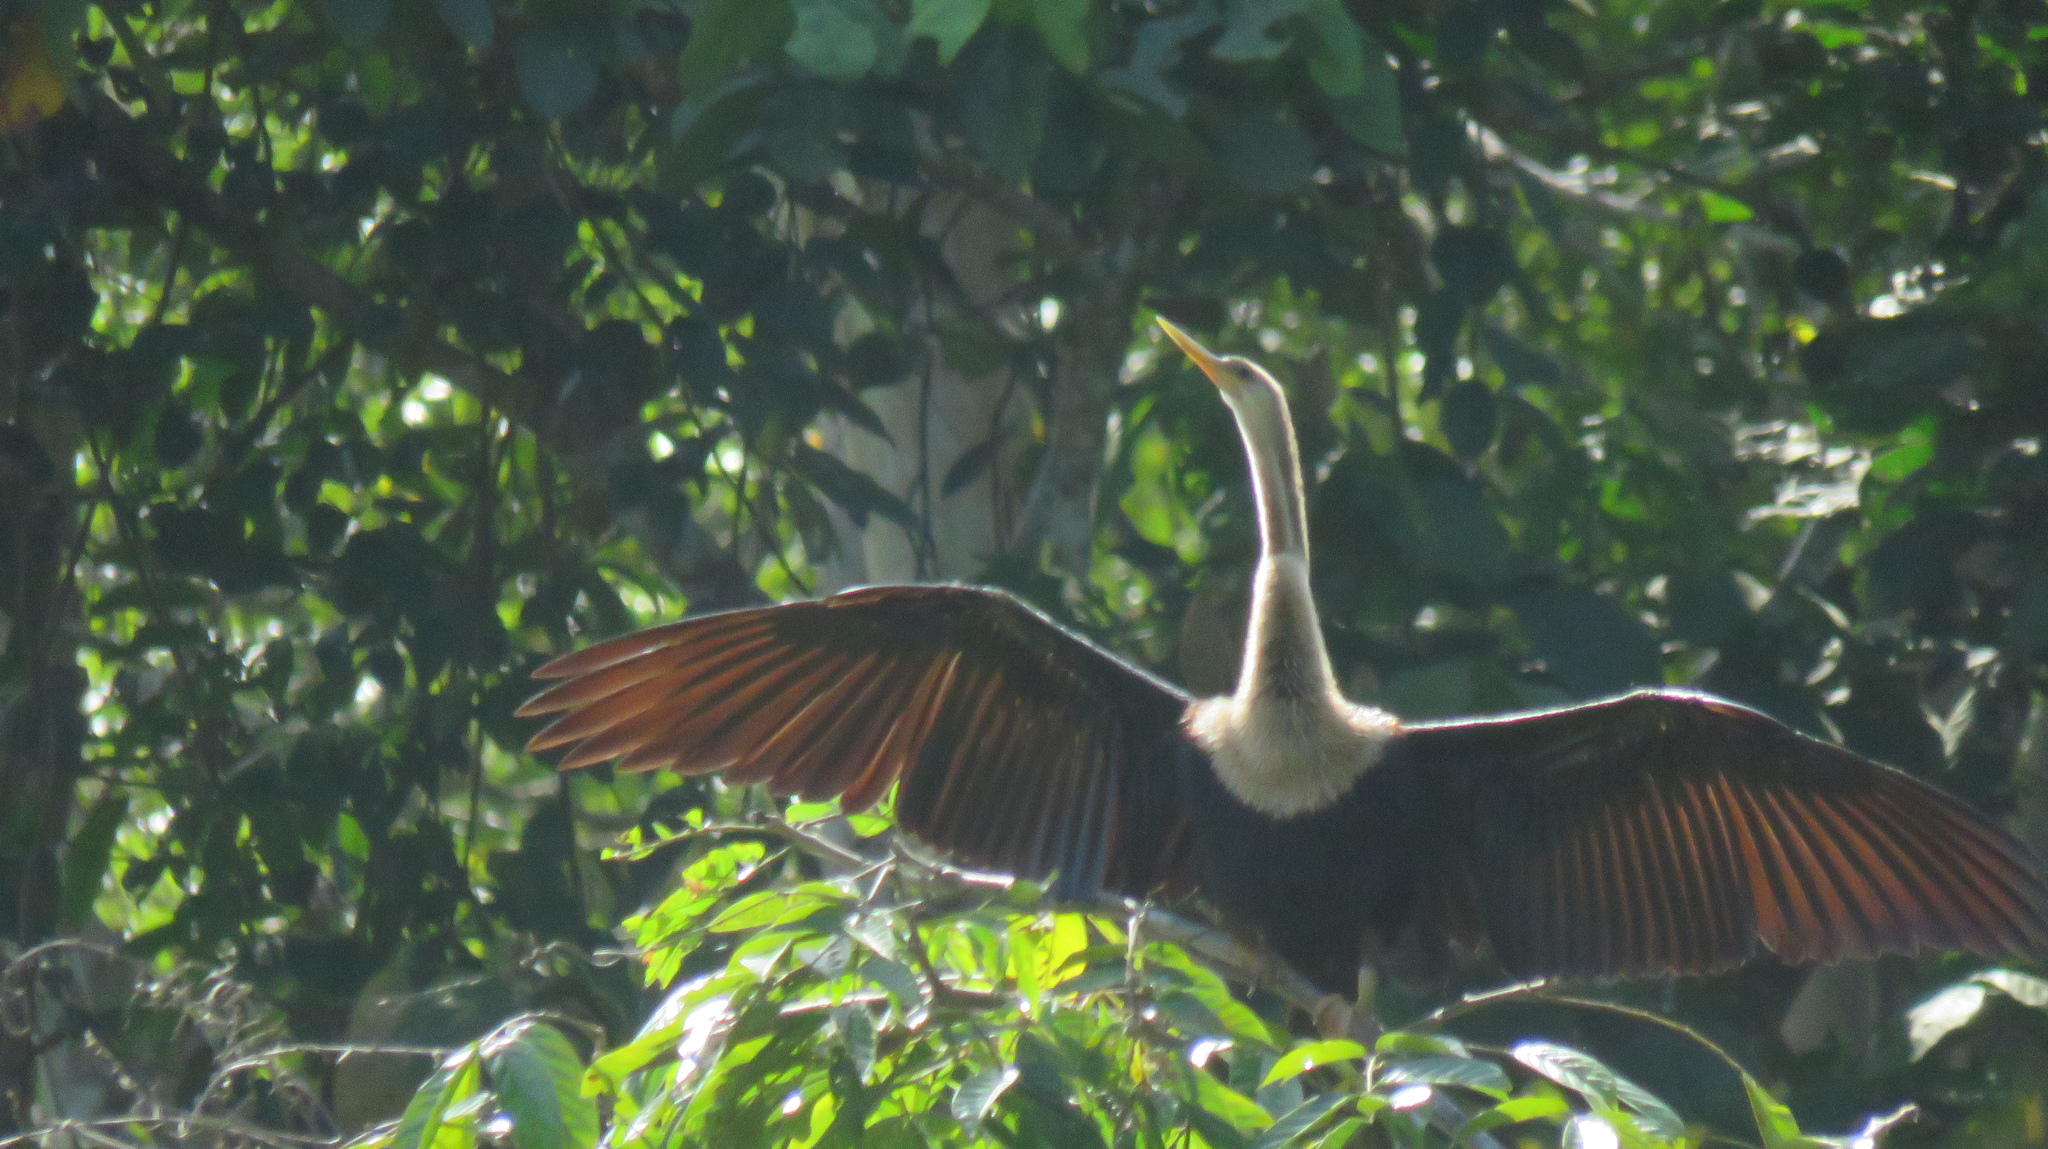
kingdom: Animalia
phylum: Chordata
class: Aves
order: Suliformes
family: Anhingidae
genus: Anhinga
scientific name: Anhinga anhinga
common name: Anhinga
